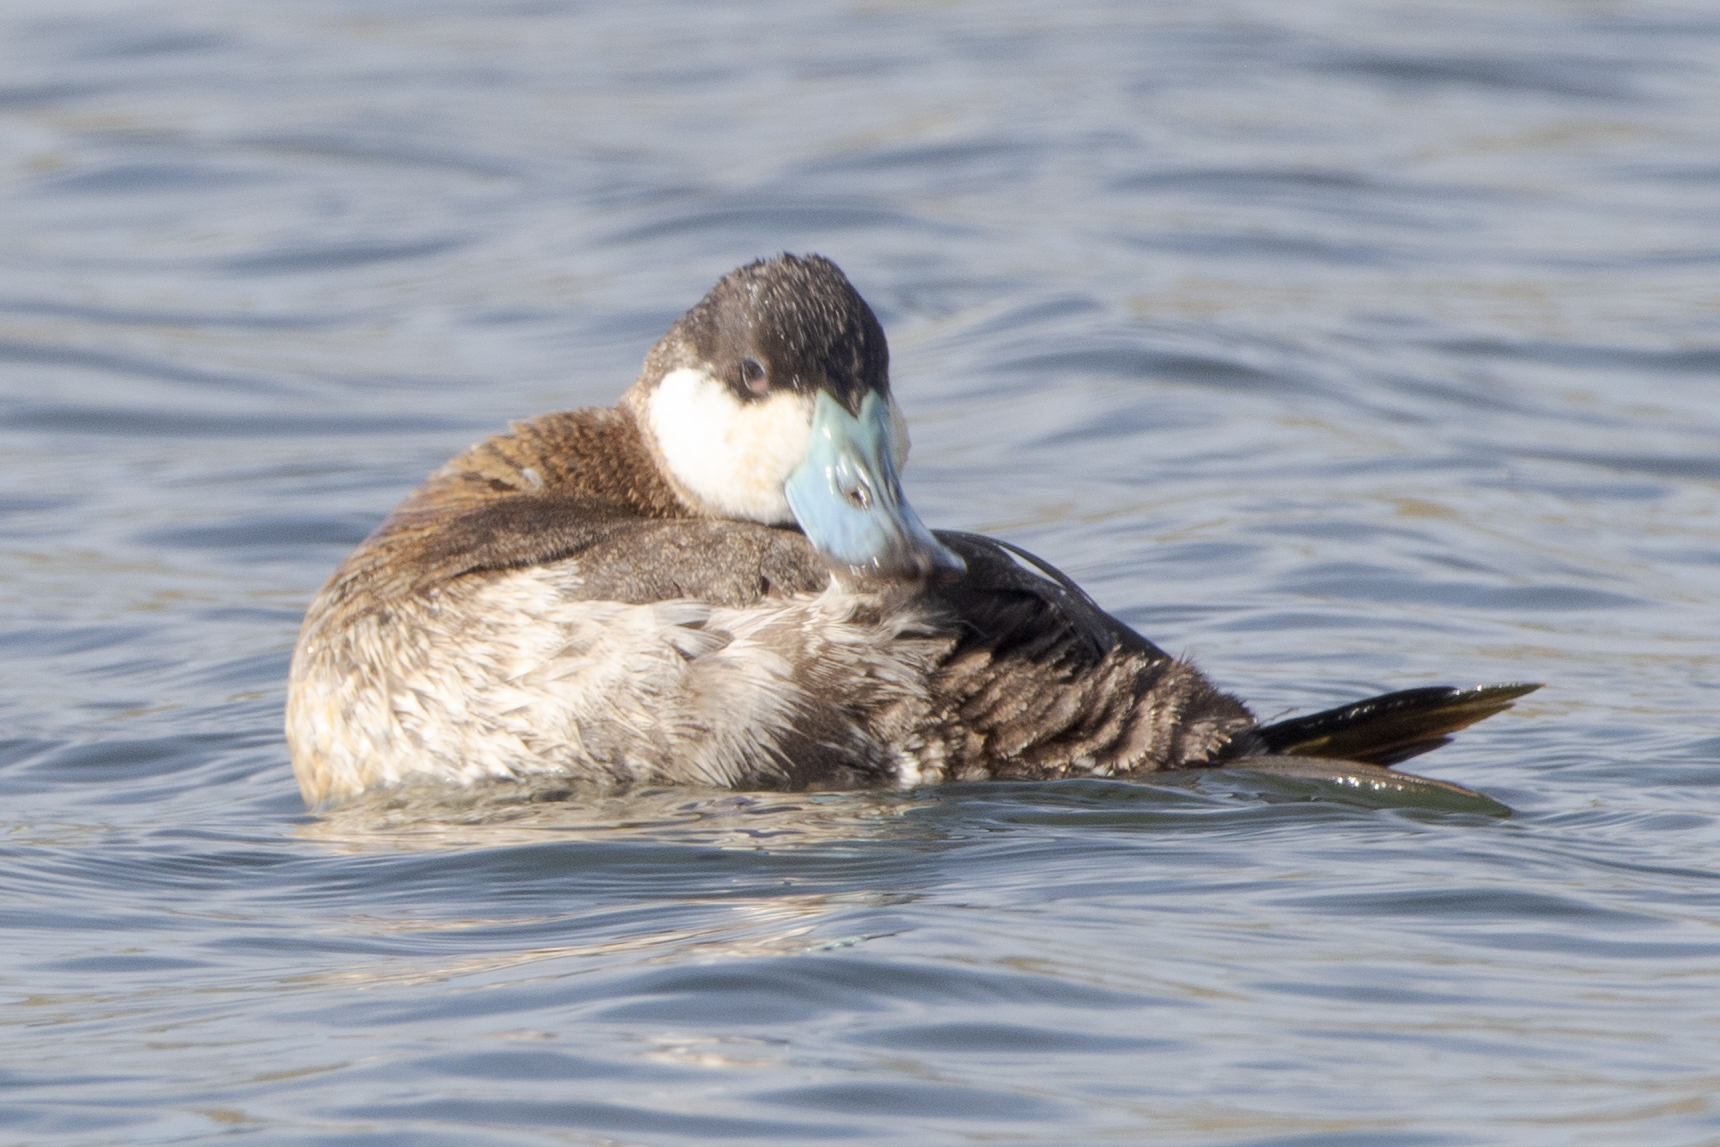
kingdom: Animalia
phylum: Chordata
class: Aves
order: Anseriformes
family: Anatidae
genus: Oxyura
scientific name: Oxyura jamaicensis
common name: Ruddy duck
